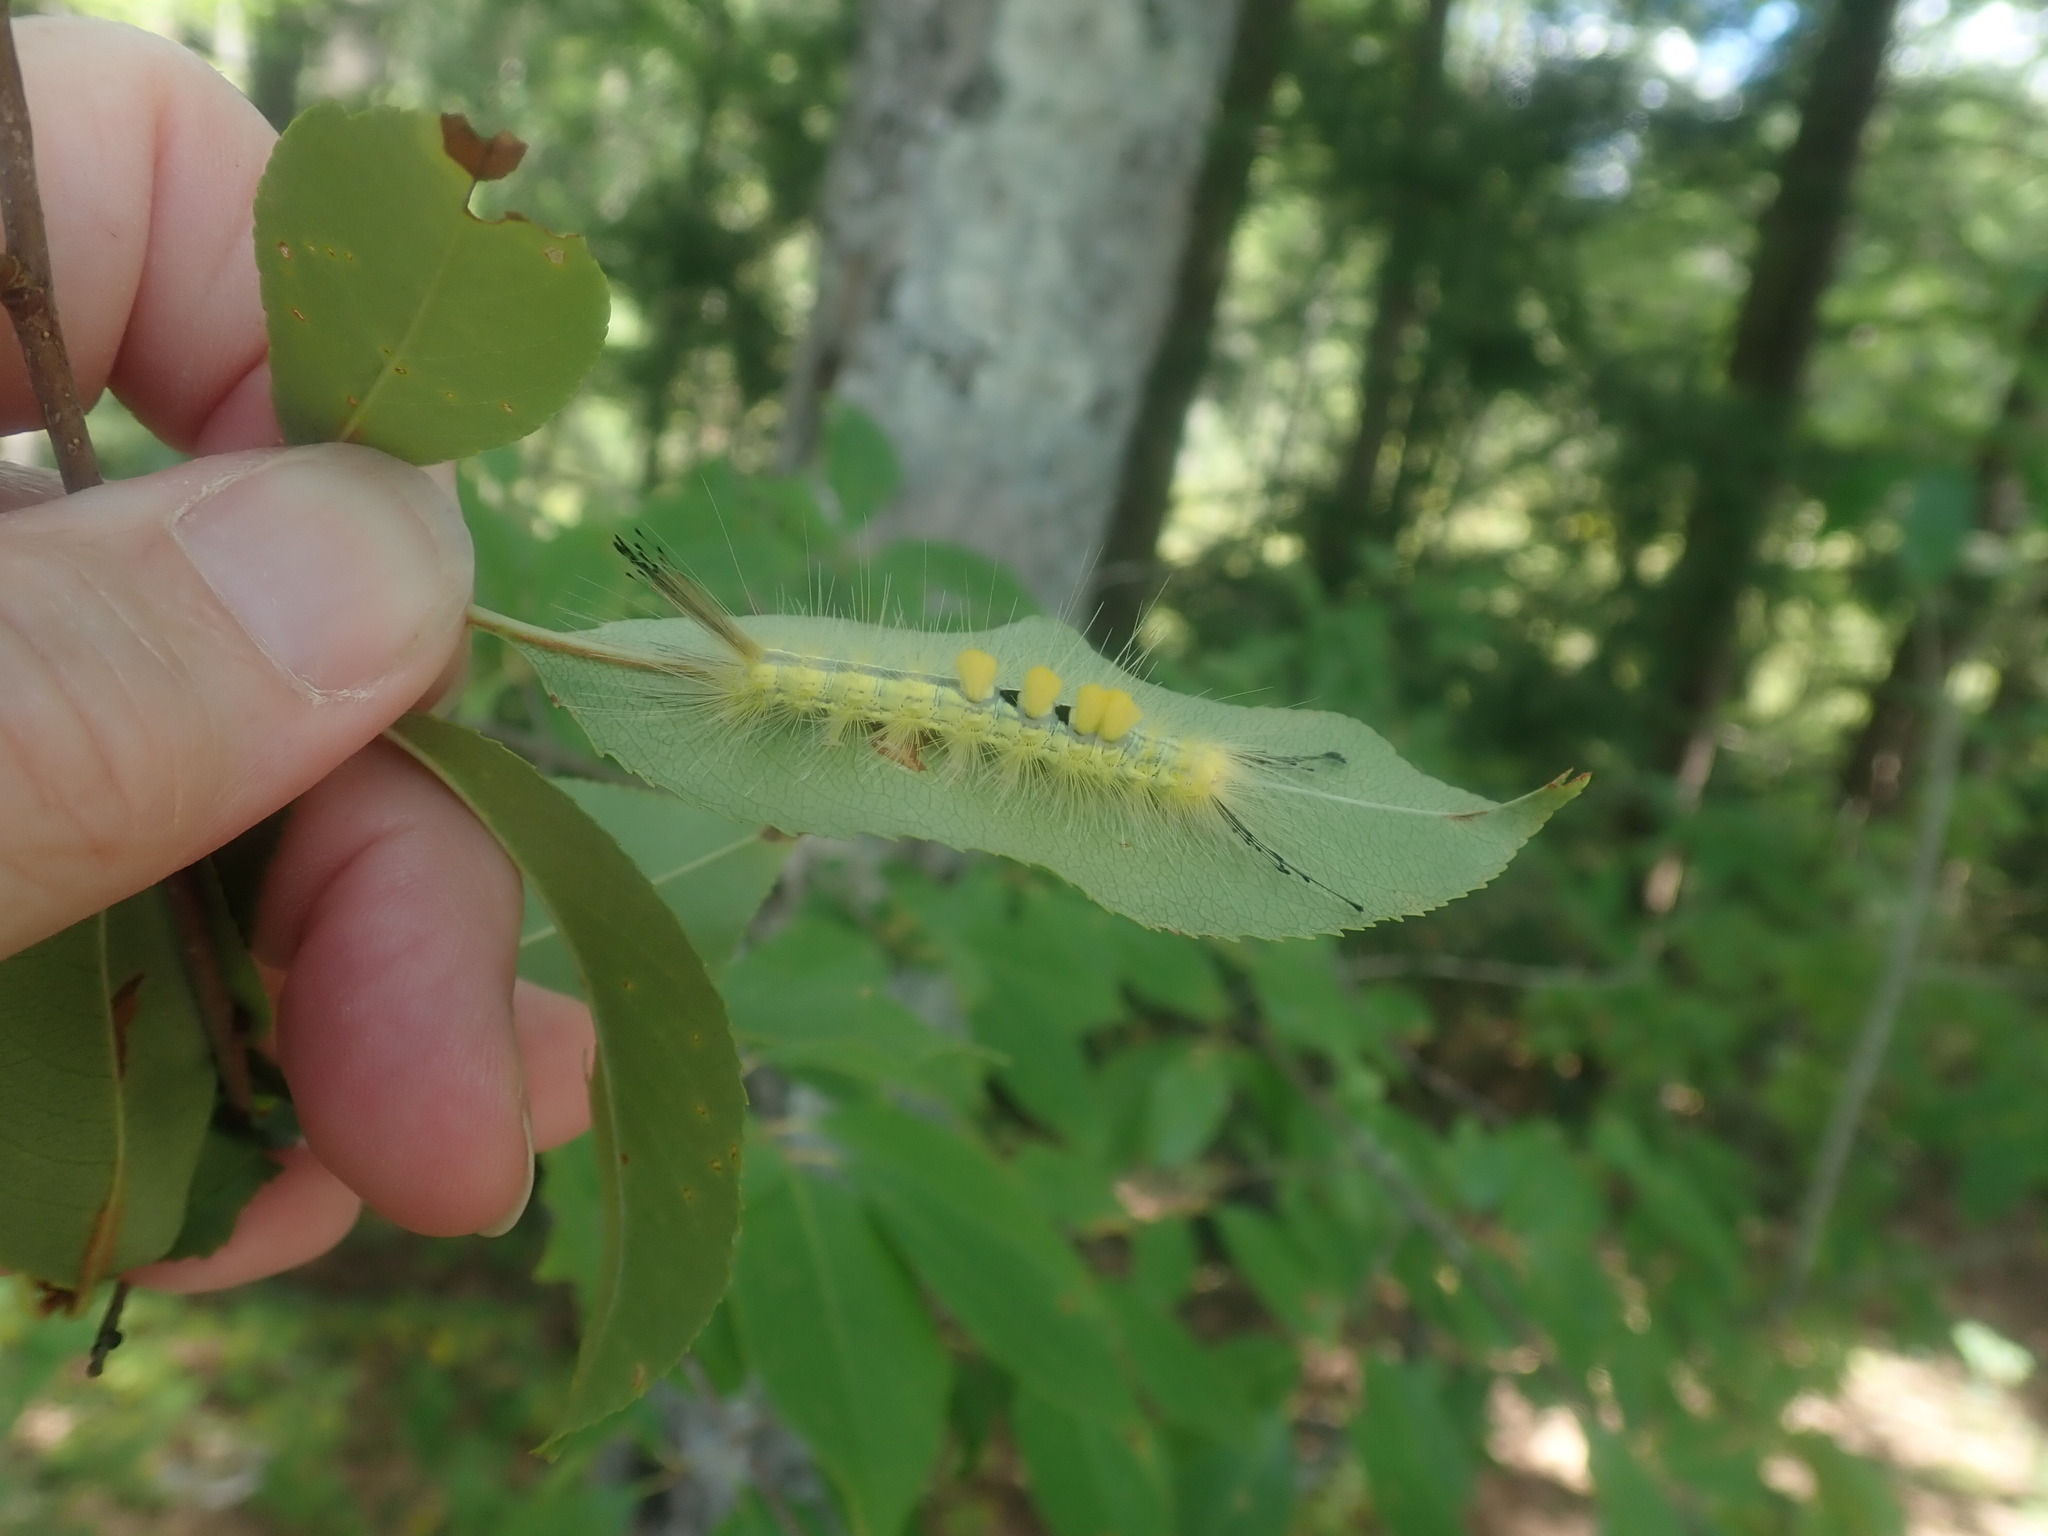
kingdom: Animalia
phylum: Arthropoda
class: Insecta
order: Lepidoptera
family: Erebidae
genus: Orgyia
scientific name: Orgyia definita
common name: Definite tussock moth
